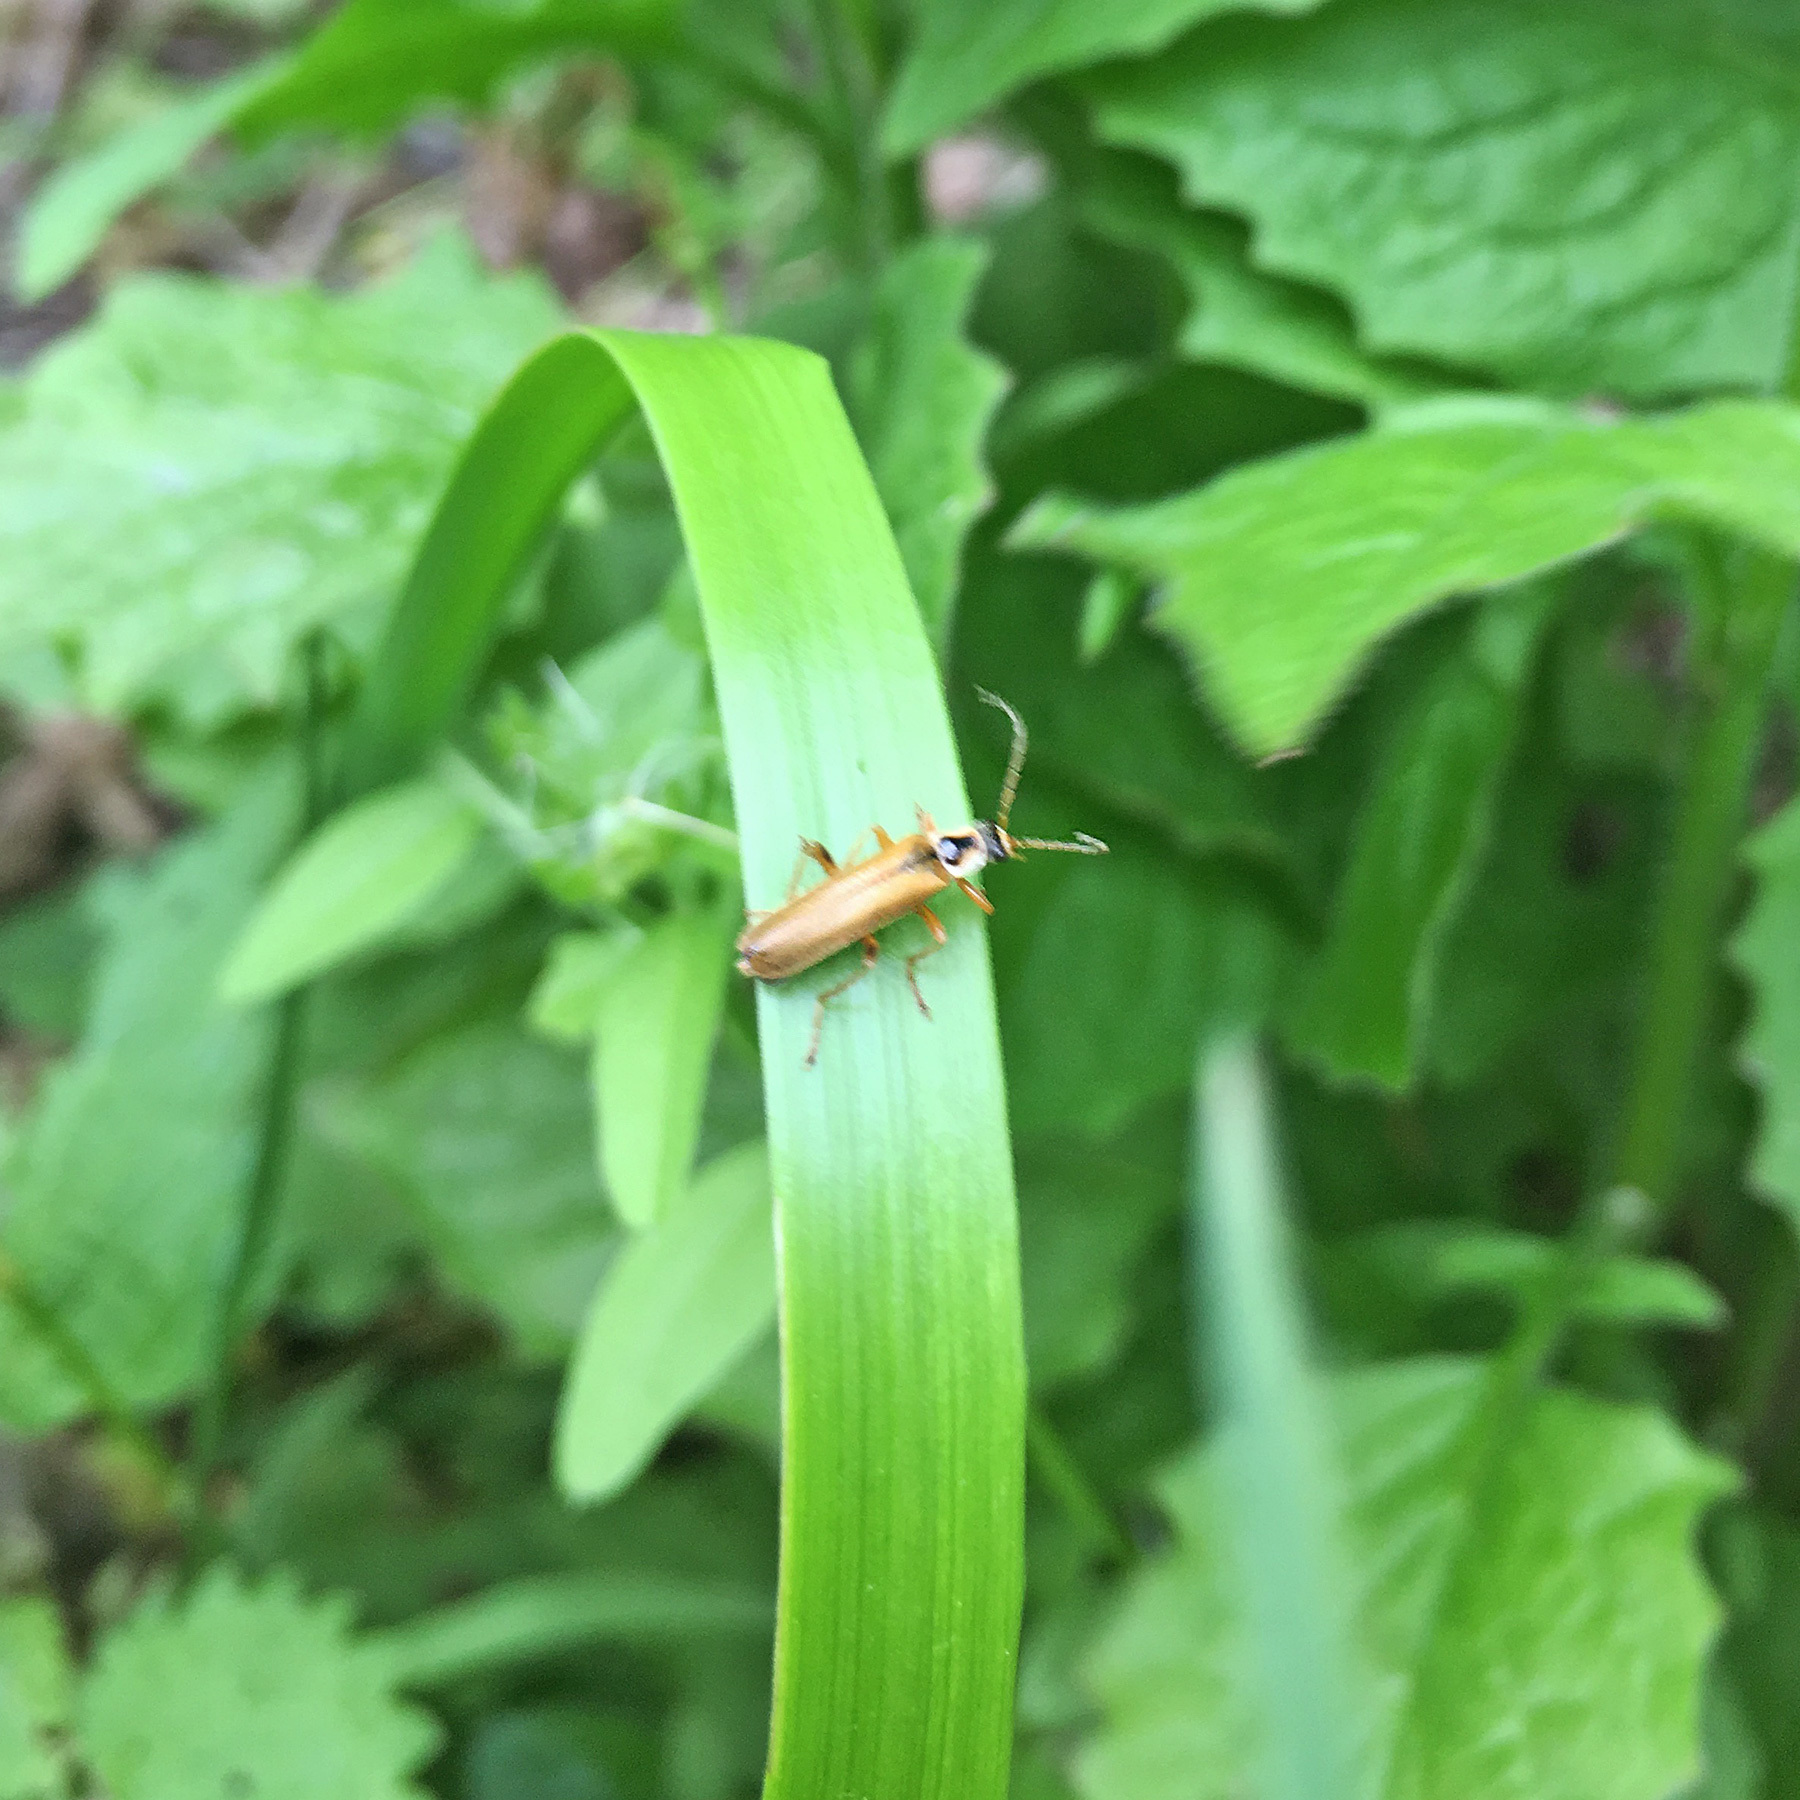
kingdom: Animalia
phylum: Arthropoda
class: Insecta
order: Coleoptera
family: Cantharidae
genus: Cantharis
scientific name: Cantharis decipiens
